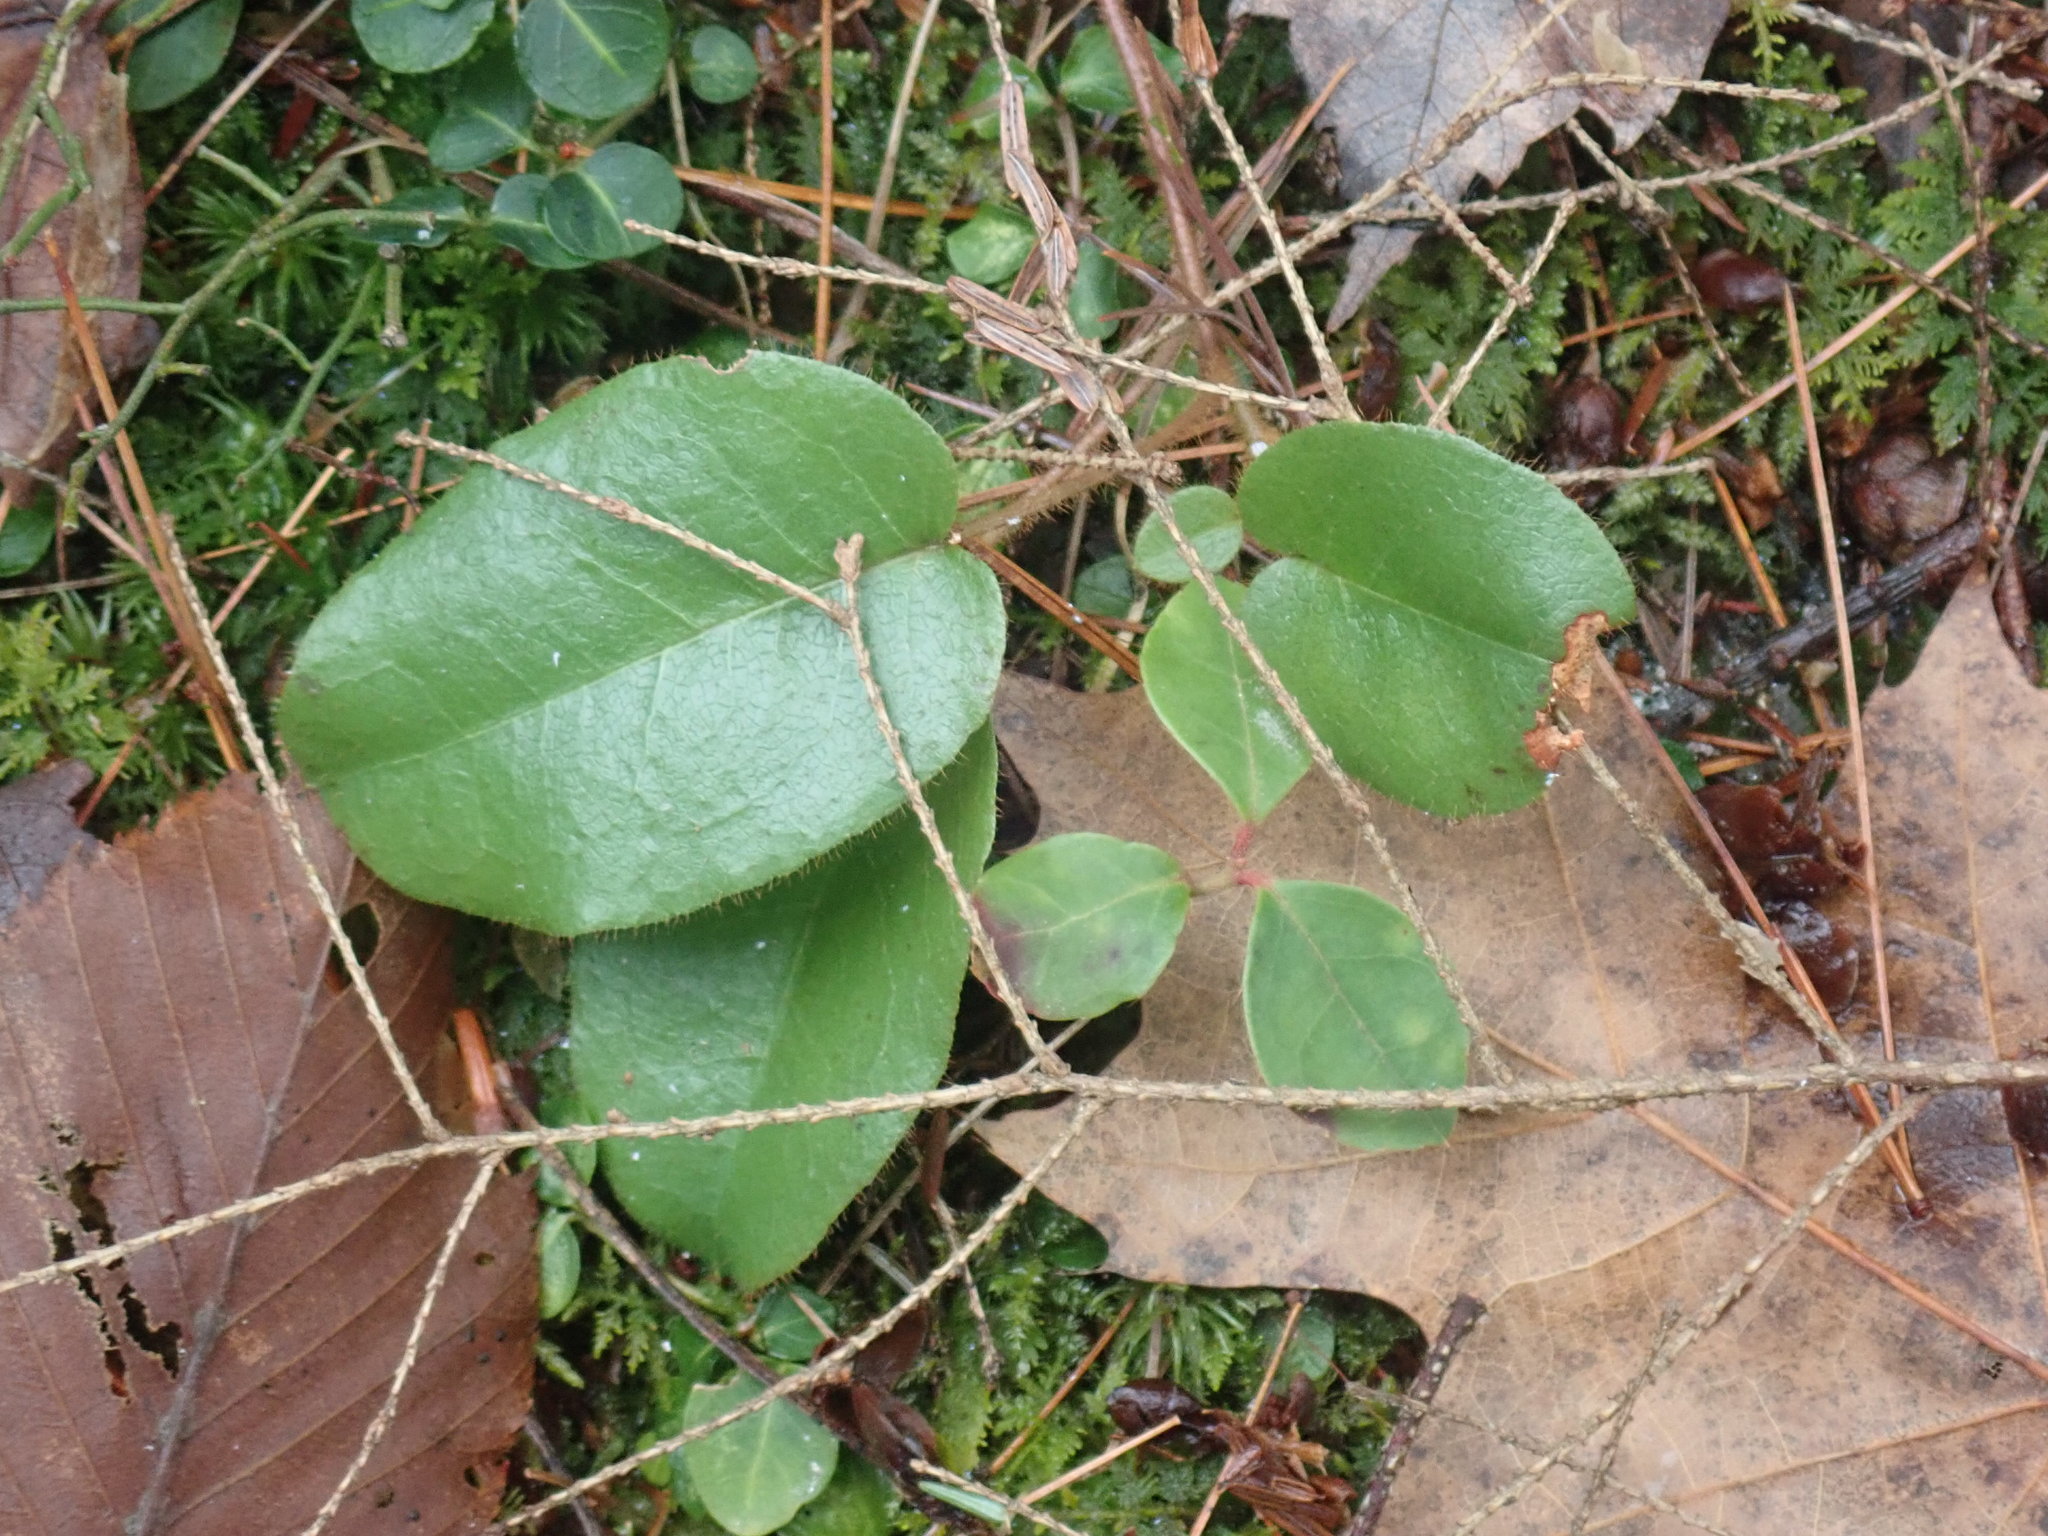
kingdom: Plantae
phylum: Tracheophyta
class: Magnoliopsida
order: Ericales
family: Ericaceae
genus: Epigaea
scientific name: Epigaea repens
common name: Gravelroot
